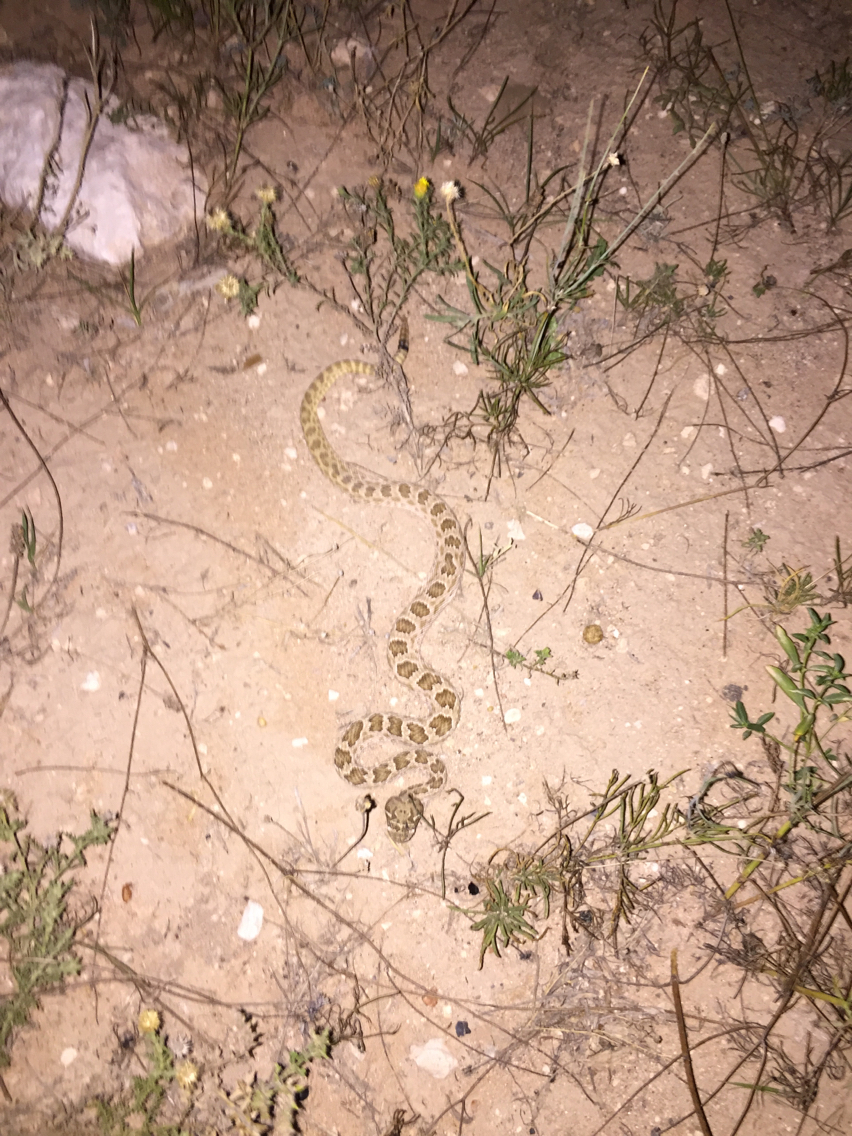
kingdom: Animalia
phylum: Chordata
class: Squamata
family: Viperidae
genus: Crotalus
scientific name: Crotalus viridis
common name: Prairie rattlesnake
